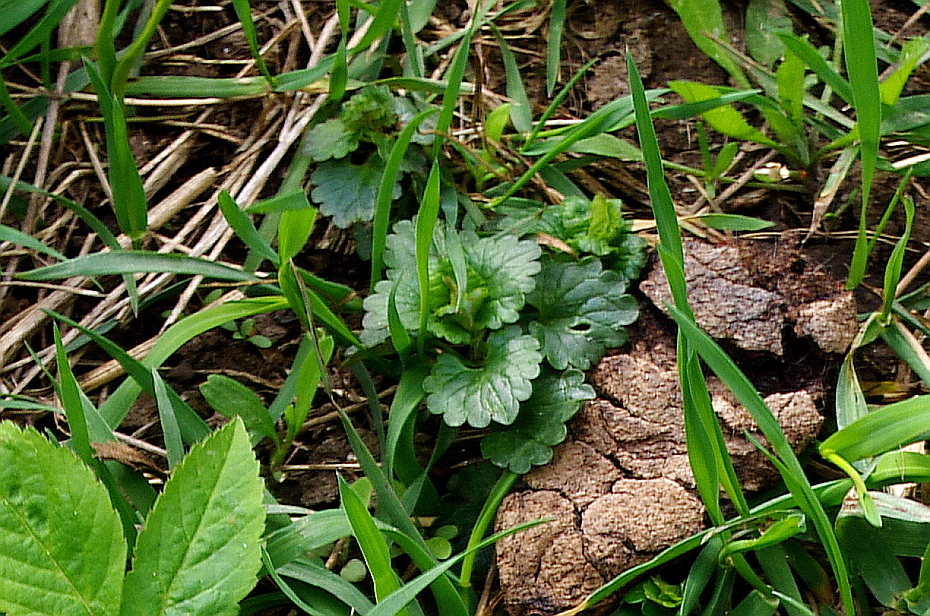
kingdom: Plantae
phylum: Tracheophyta
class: Magnoliopsida
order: Lamiales
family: Lamiaceae
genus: Glechoma
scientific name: Glechoma hederacea
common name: Ground ivy
